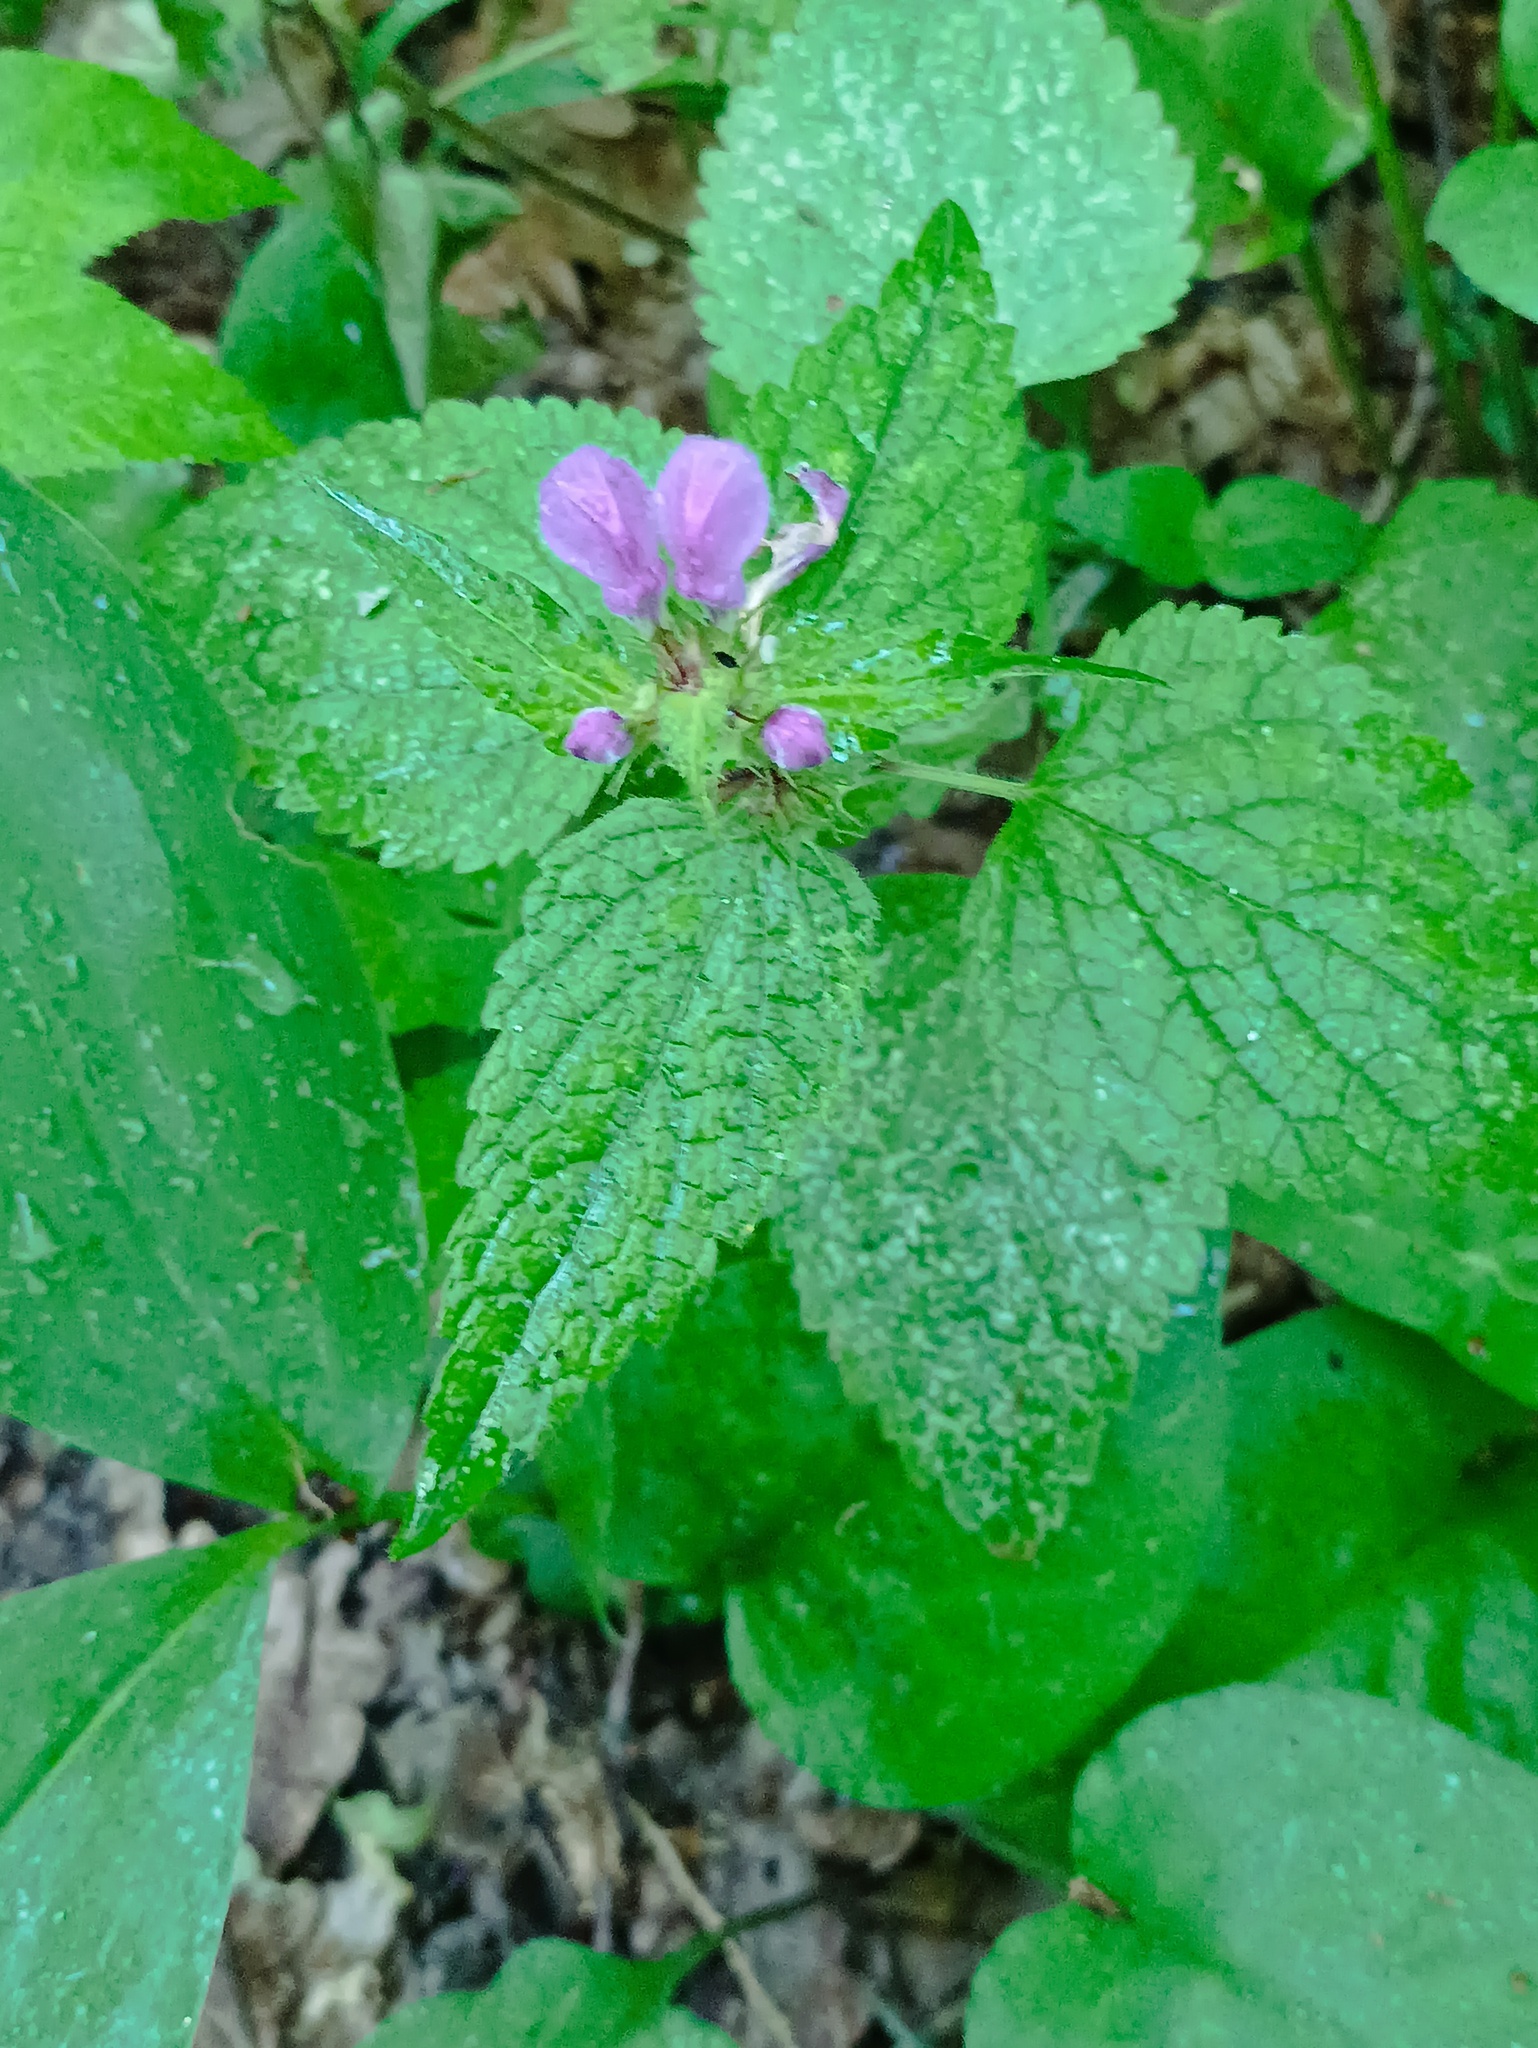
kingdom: Plantae
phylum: Tracheophyta
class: Magnoliopsida
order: Lamiales
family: Lamiaceae
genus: Lamium
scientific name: Lamium maculatum
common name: Spotted dead-nettle
